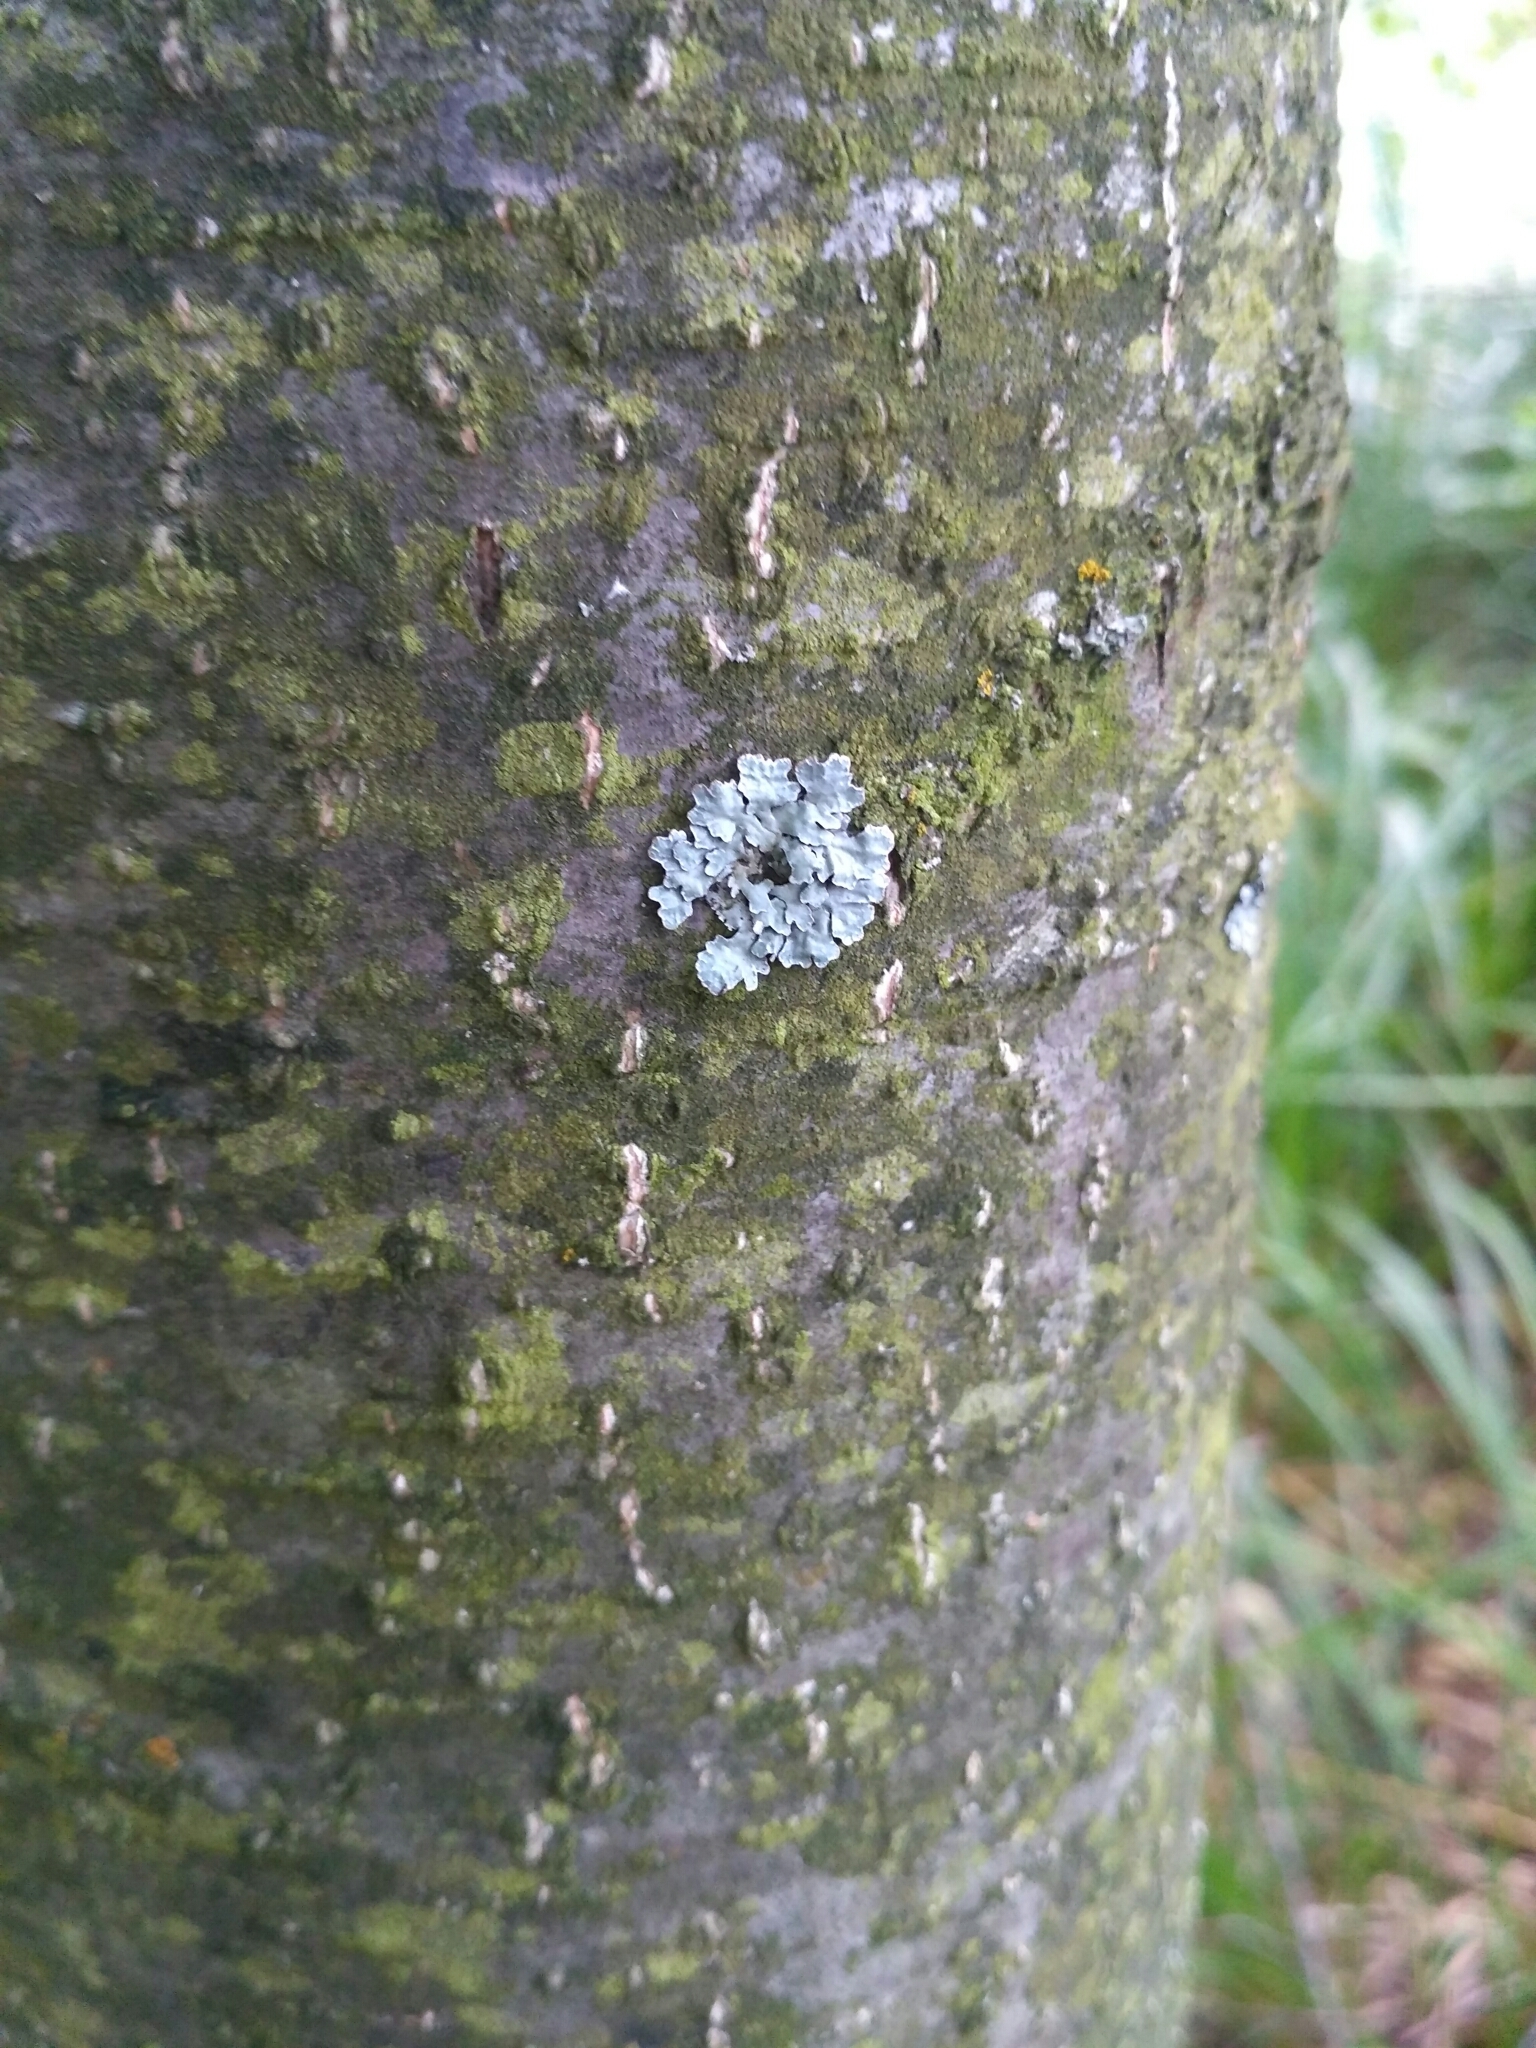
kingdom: Fungi
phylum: Ascomycota
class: Lecanoromycetes
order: Lecanorales
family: Parmeliaceae
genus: Parmelia
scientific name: Parmelia sulcata
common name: Netted shield lichen
